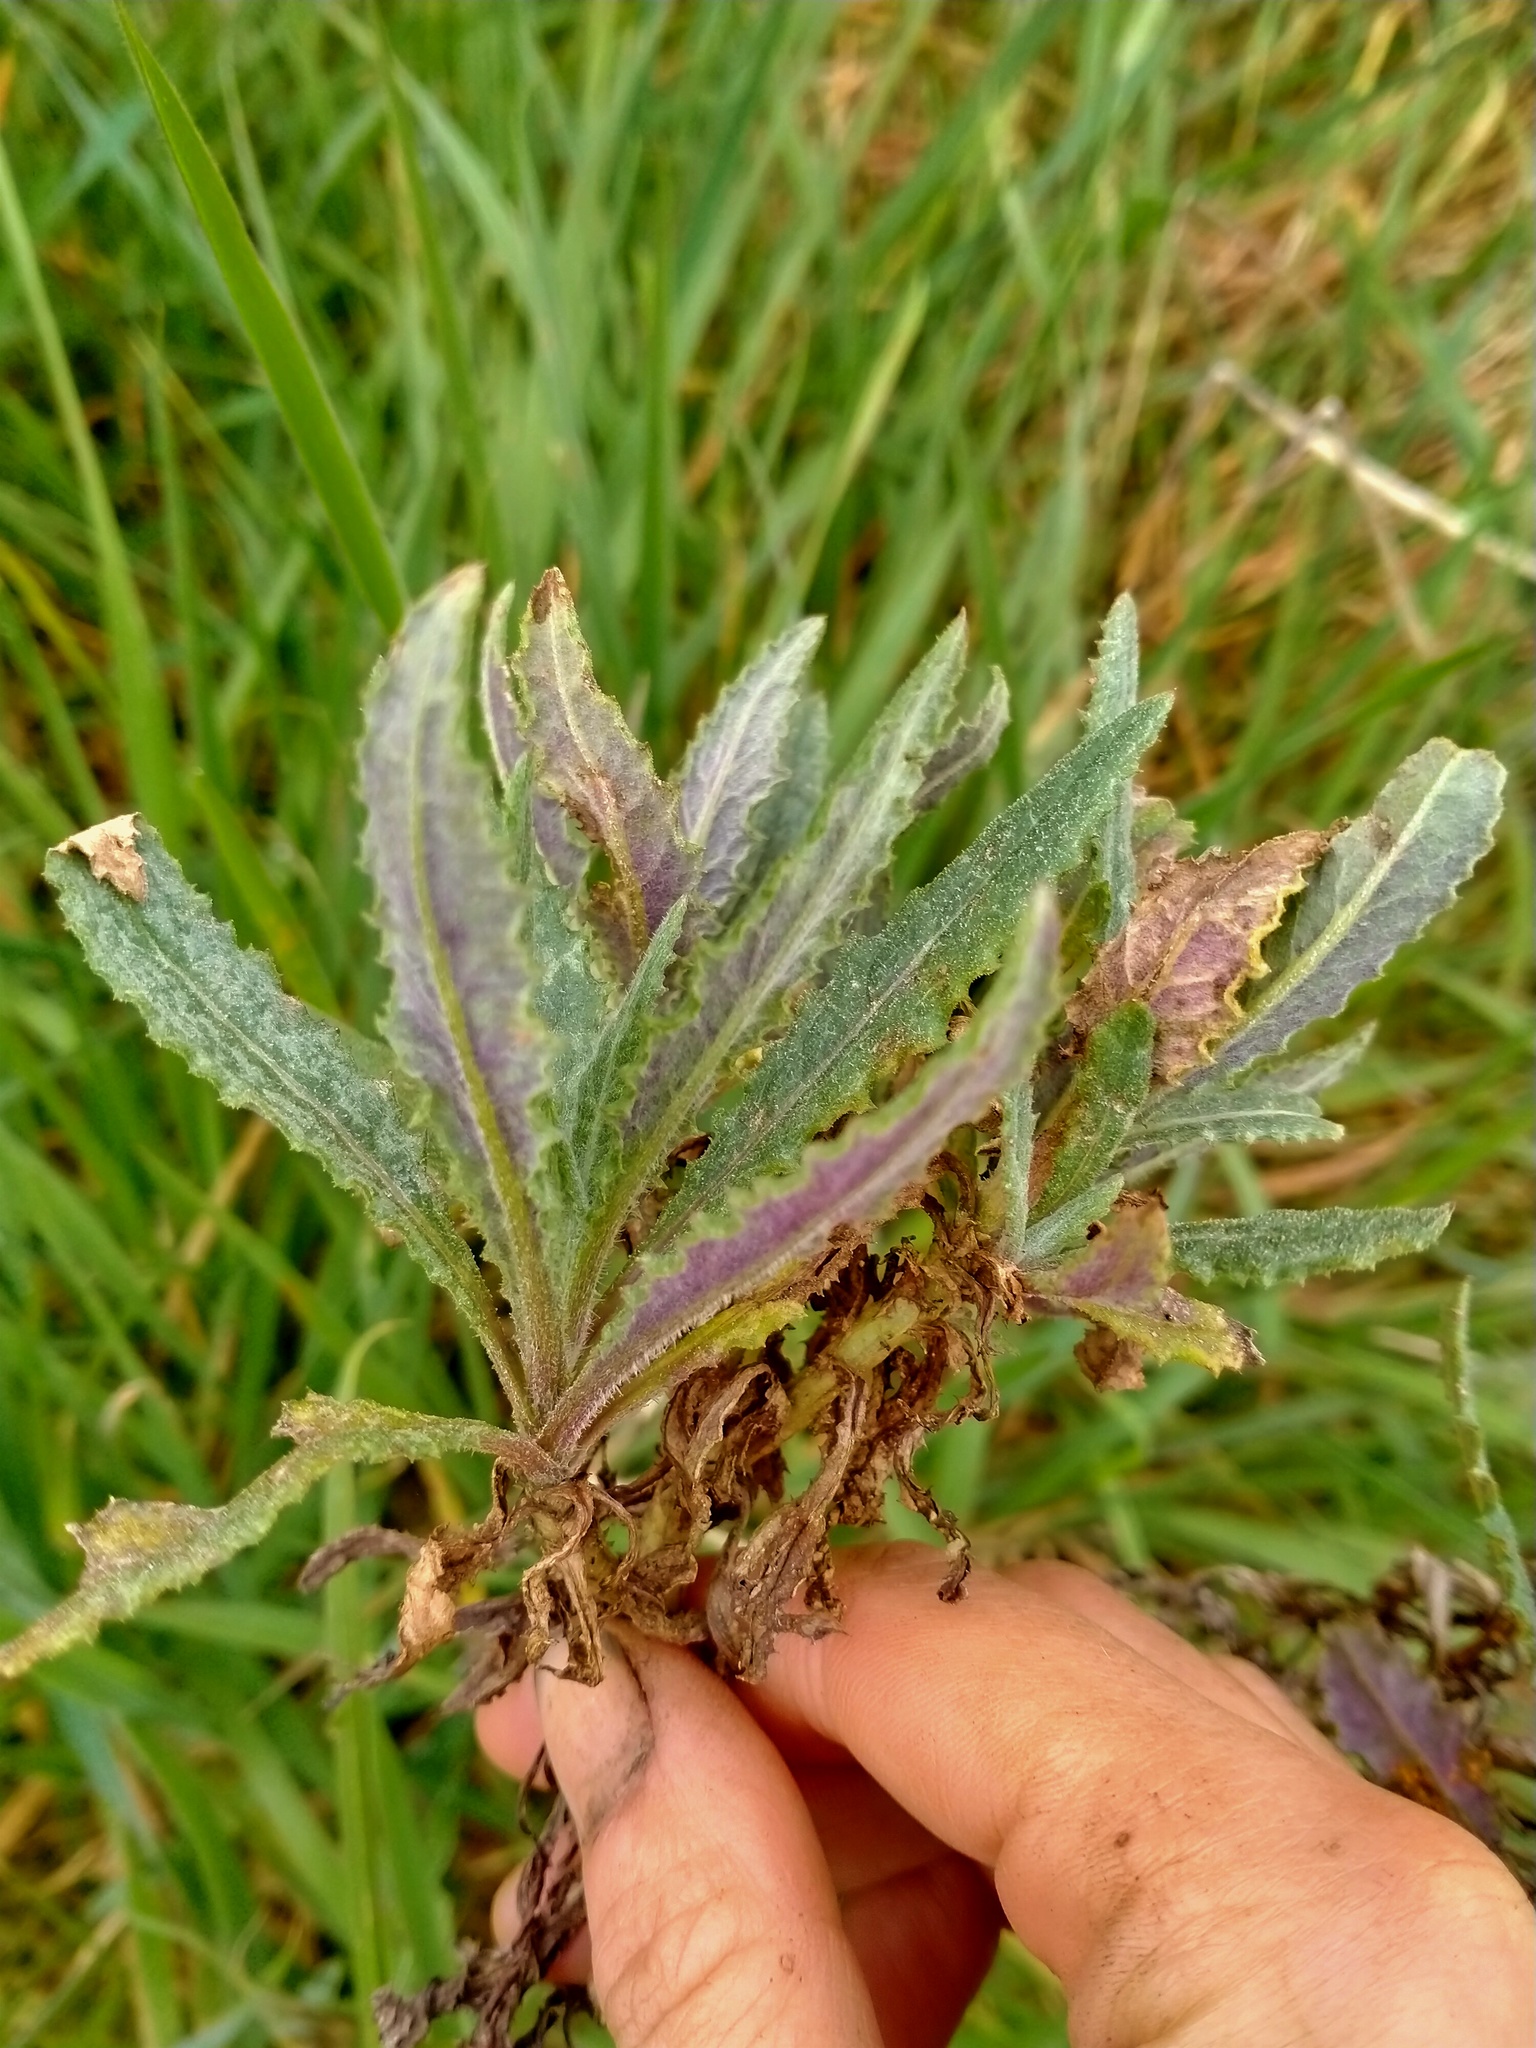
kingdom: Plantae
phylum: Tracheophyta
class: Magnoliopsida
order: Asterales
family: Asteraceae
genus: Senecio
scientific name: Senecio minimus
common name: Toothed fireweed
